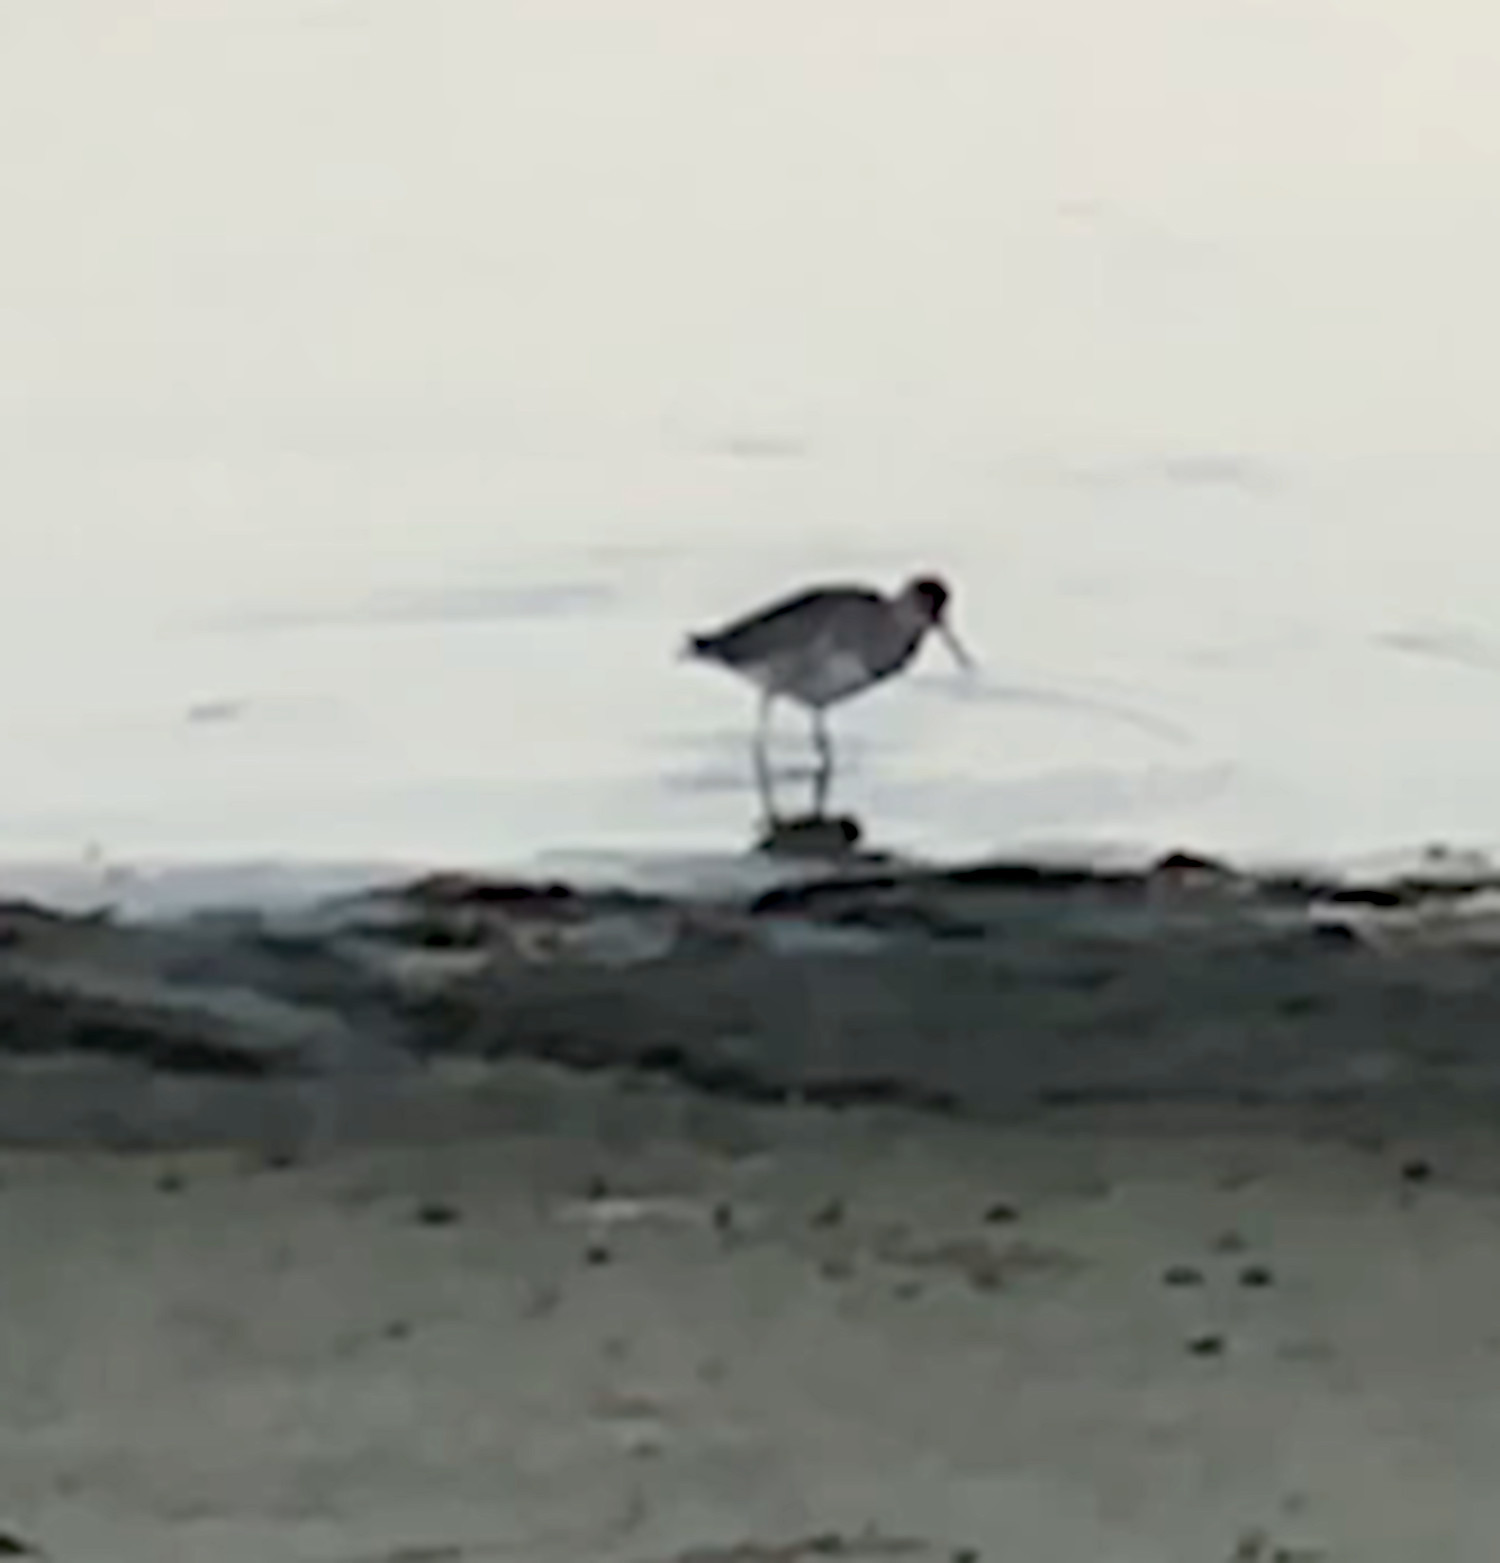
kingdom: Animalia
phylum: Chordata
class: Aves
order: Charadriiformes
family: Scolopacidae
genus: Tringa
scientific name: Tringa
